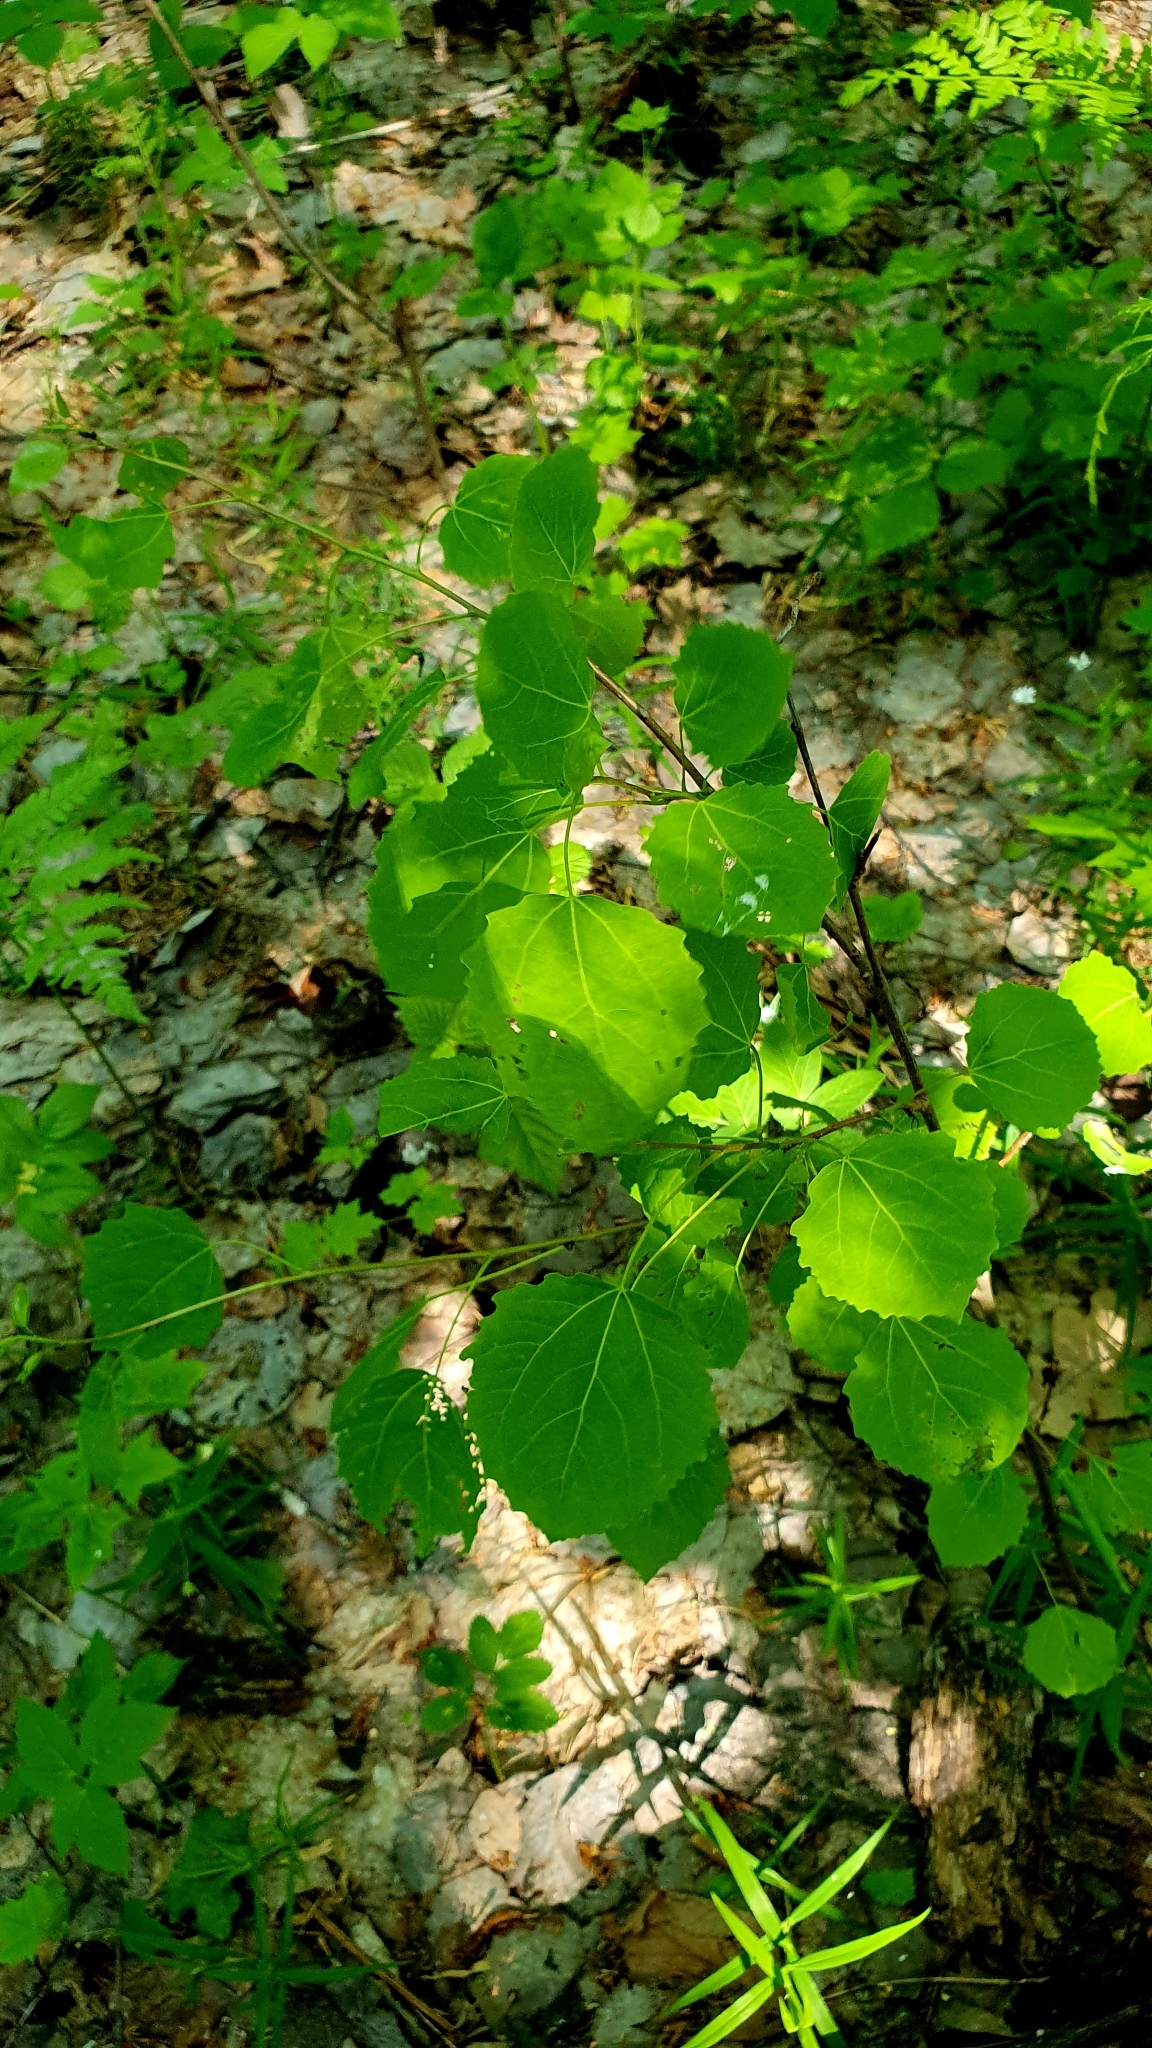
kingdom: Plantae
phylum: Tracheophyta
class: Magnoliopsida
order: Malpighiales
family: Salicaceae
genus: Populus
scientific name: Populus tremula
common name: European aspen
